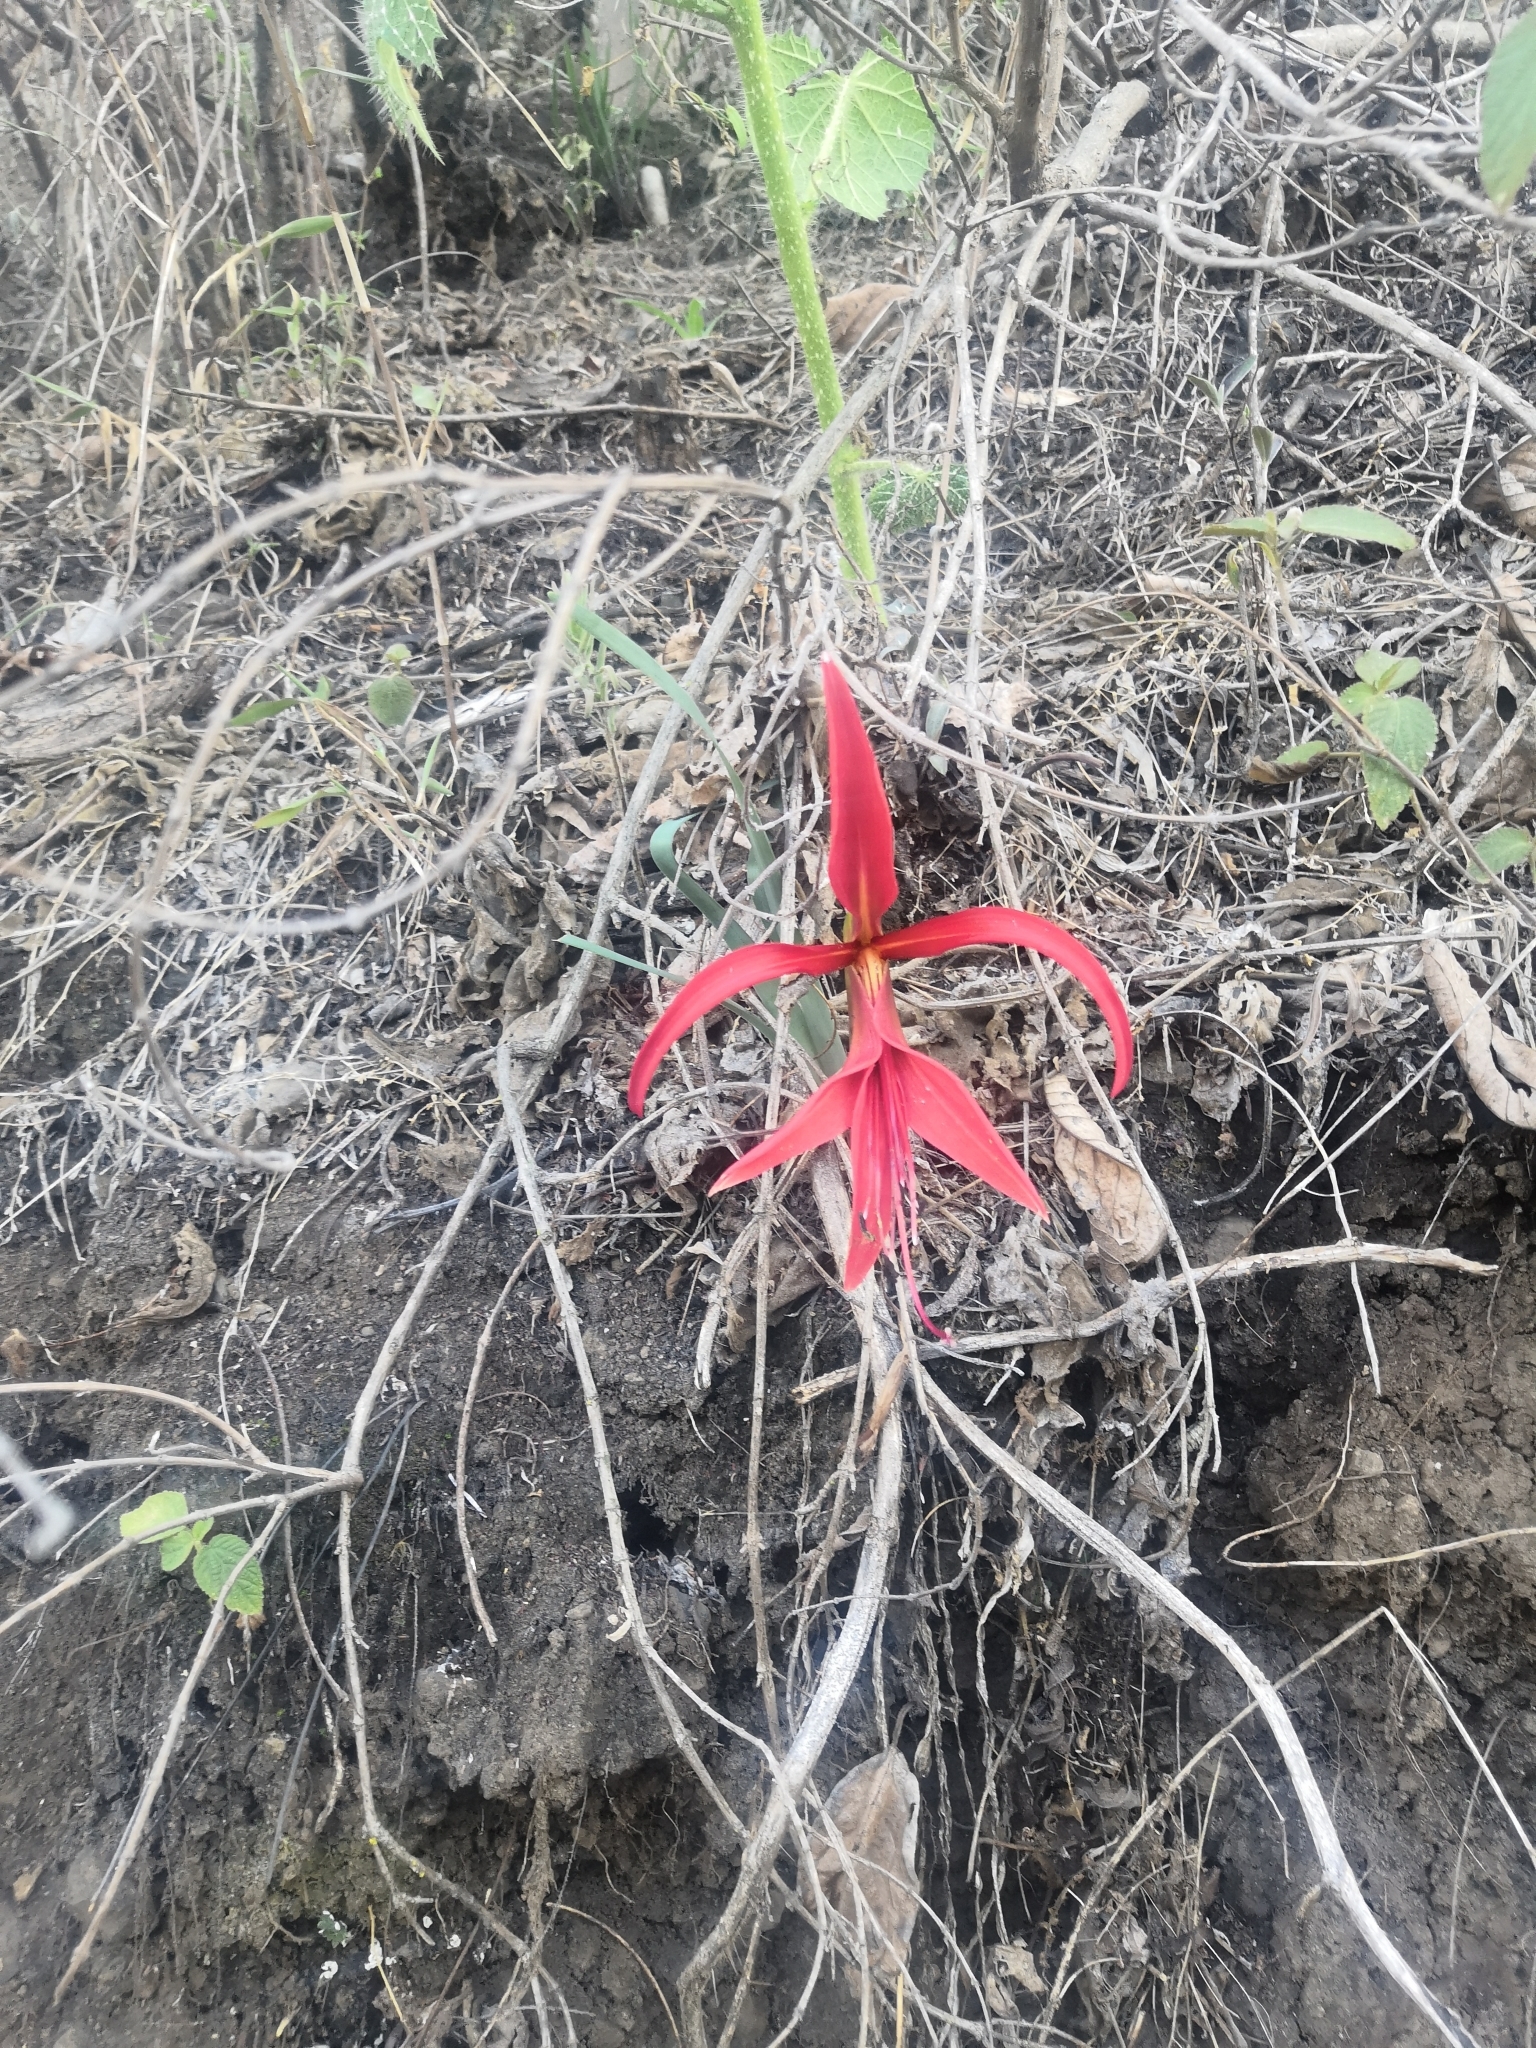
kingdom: Plantae
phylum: Tracheophyta
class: Liliopsida
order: Asparagales
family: Amaryllidaceae
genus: Sprekelia
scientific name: Sprekelia formosissima
